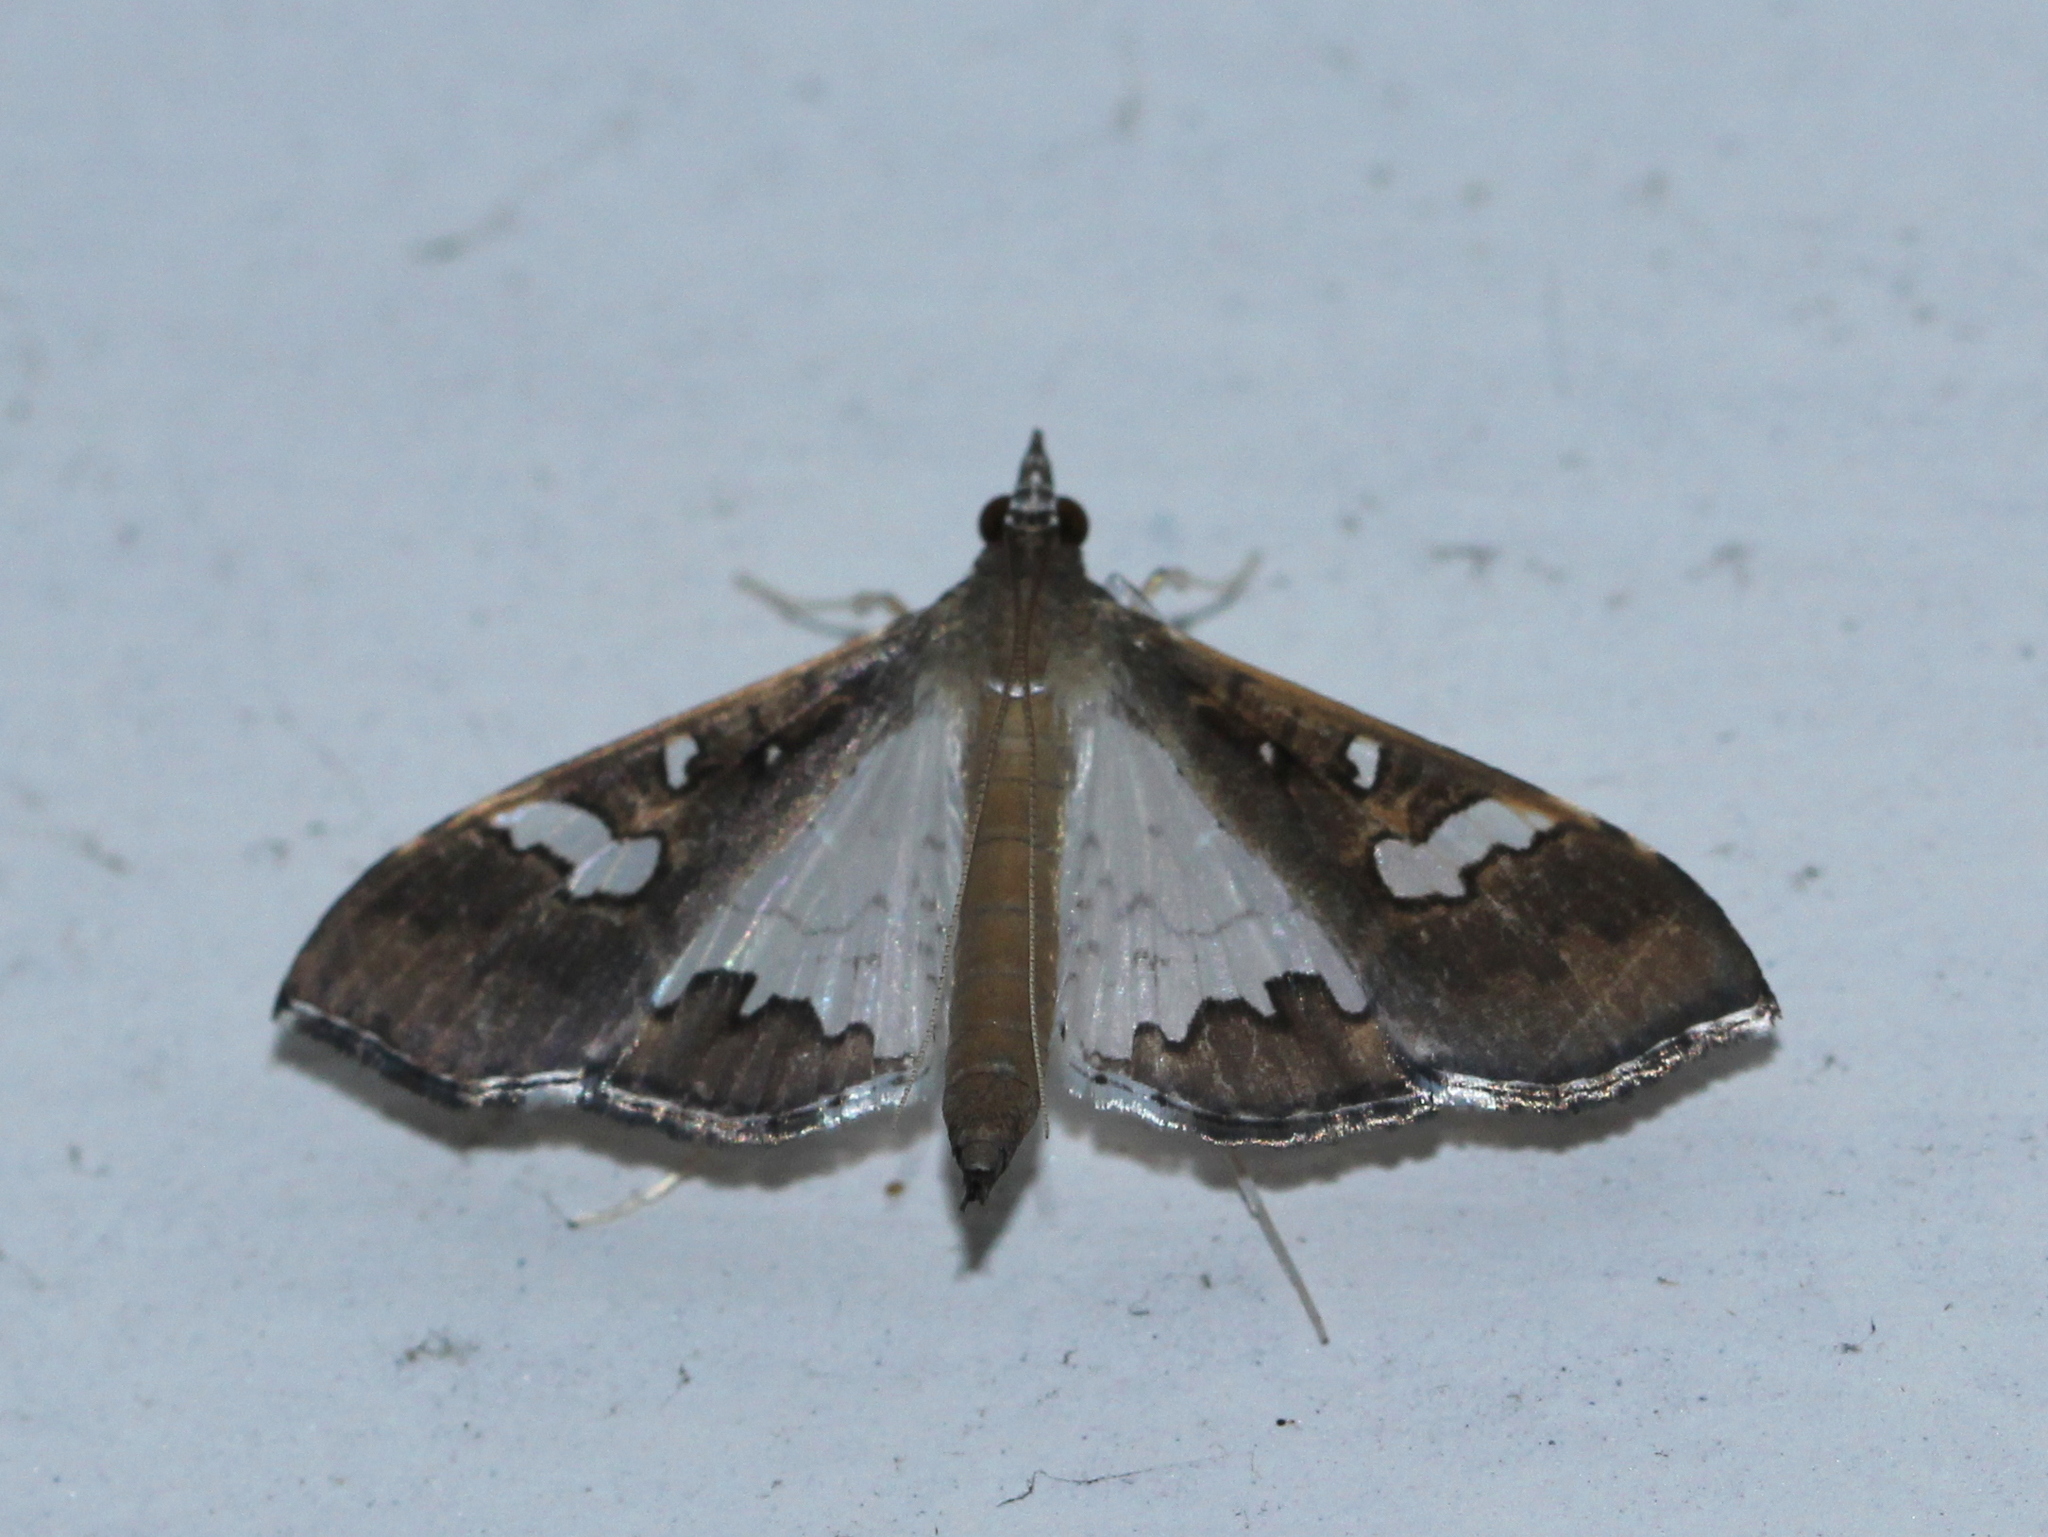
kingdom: Animalia
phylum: Arthropoda
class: Insecta
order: Lepidoptera
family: Crambidae
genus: Maruca
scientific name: Maruca vitrata
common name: Maruca pod borer
